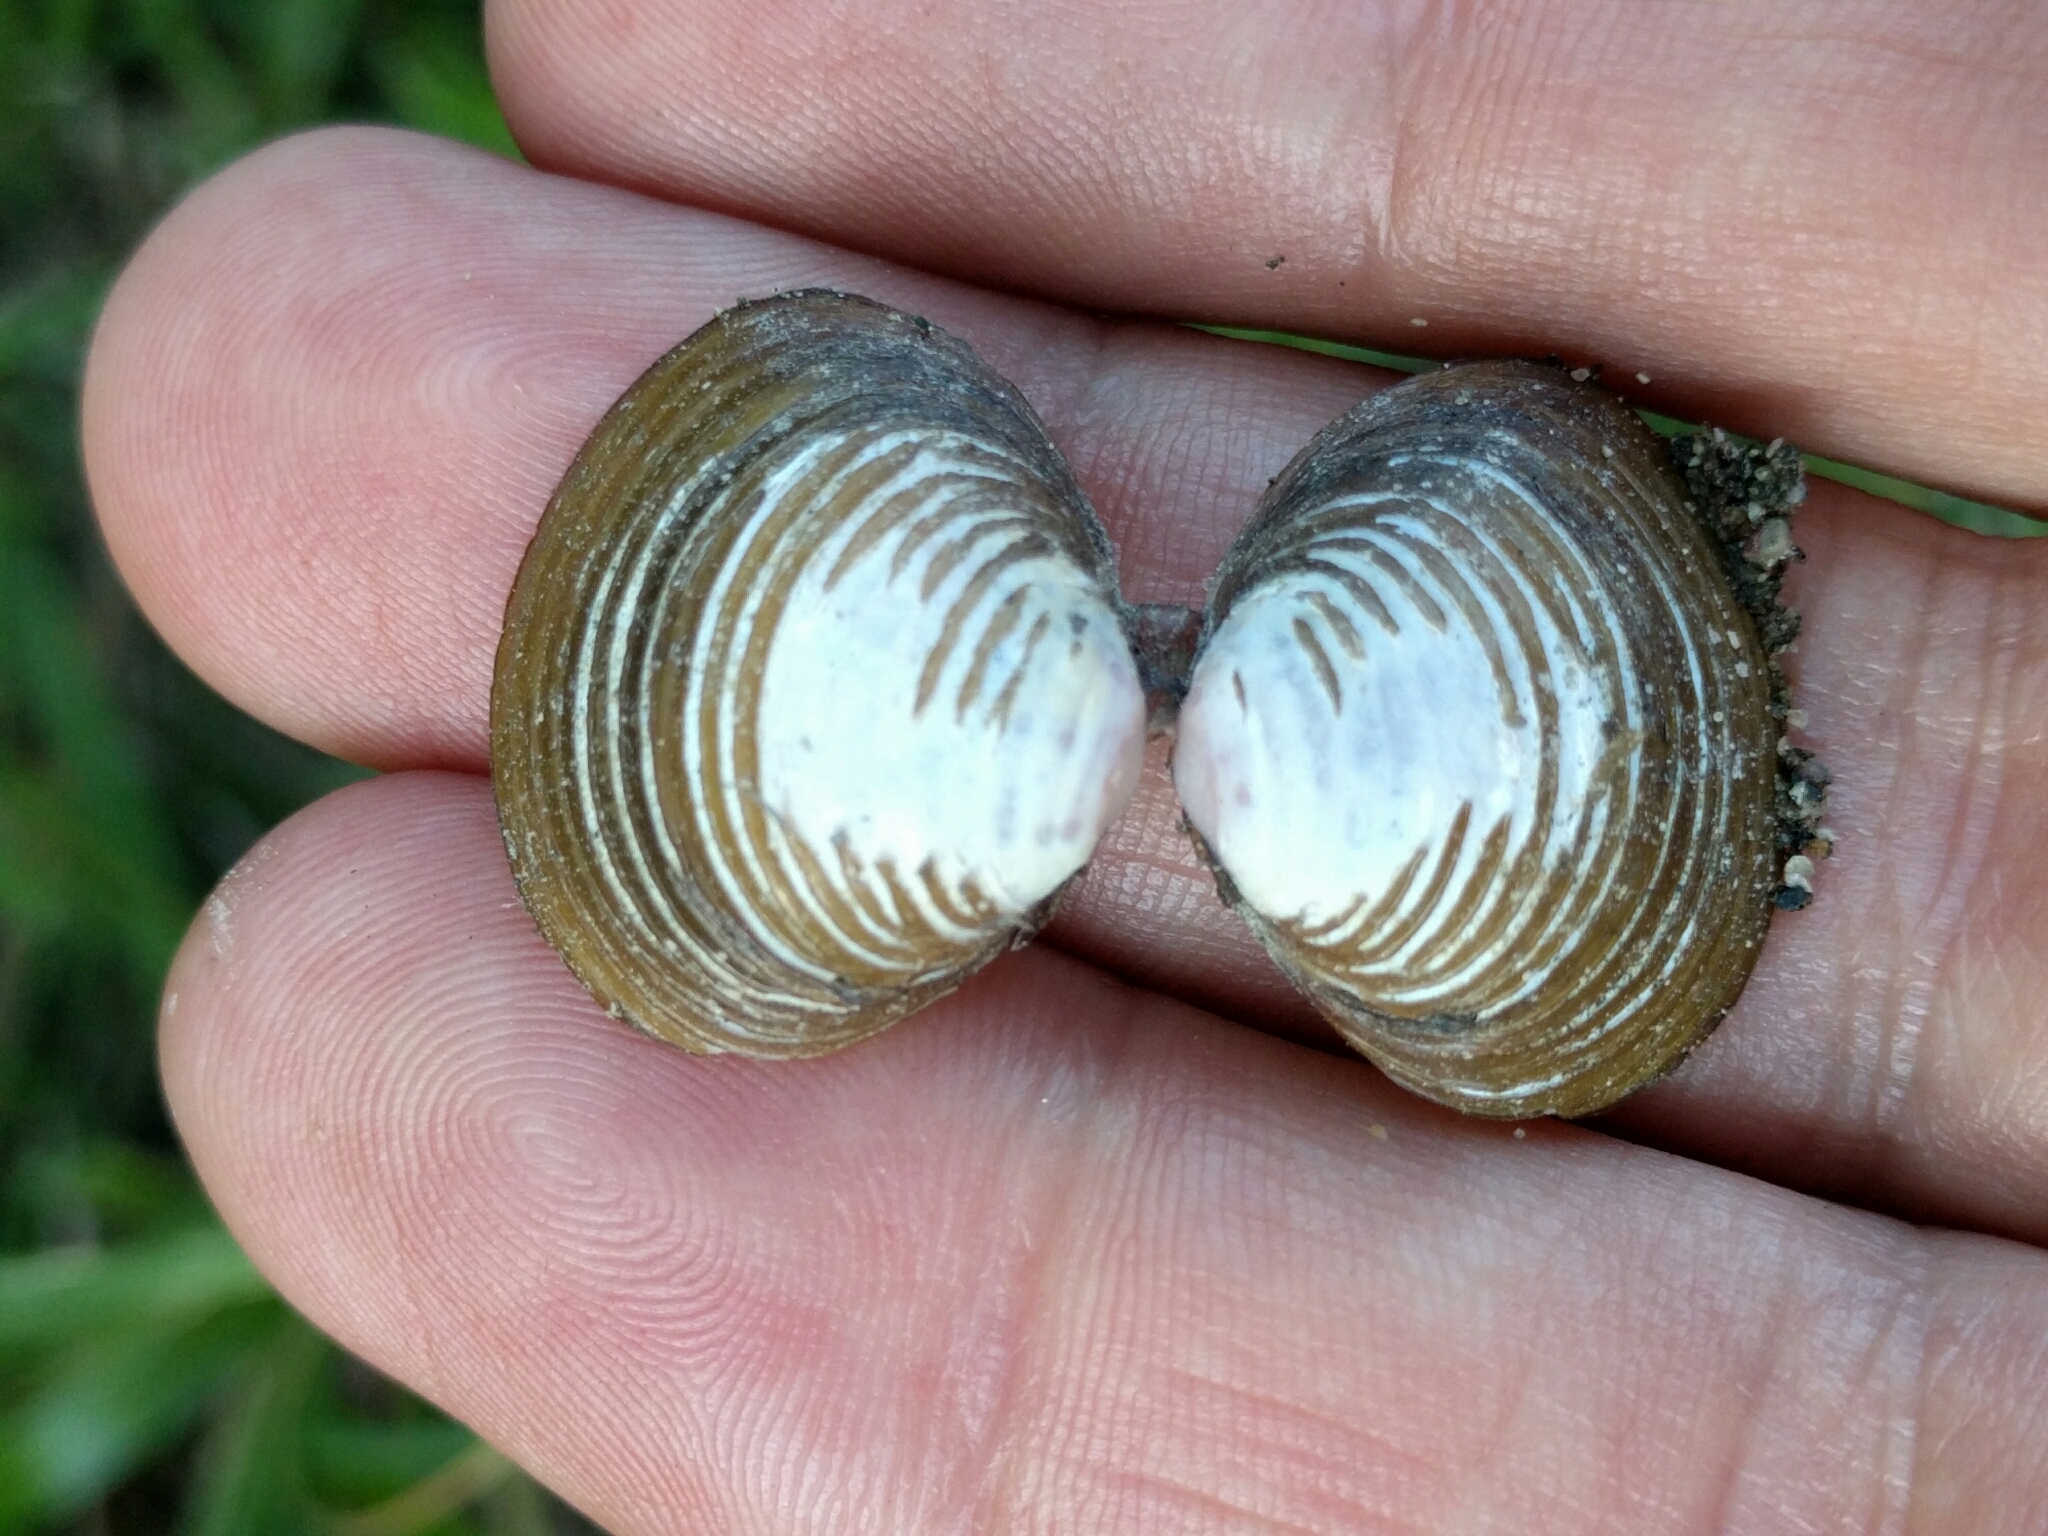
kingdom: Animalia
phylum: Mollusca
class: Bivalvia
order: Venerida
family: Cyrenidae
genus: Corbicula
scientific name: Corbicula fluminea
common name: Asian clam
